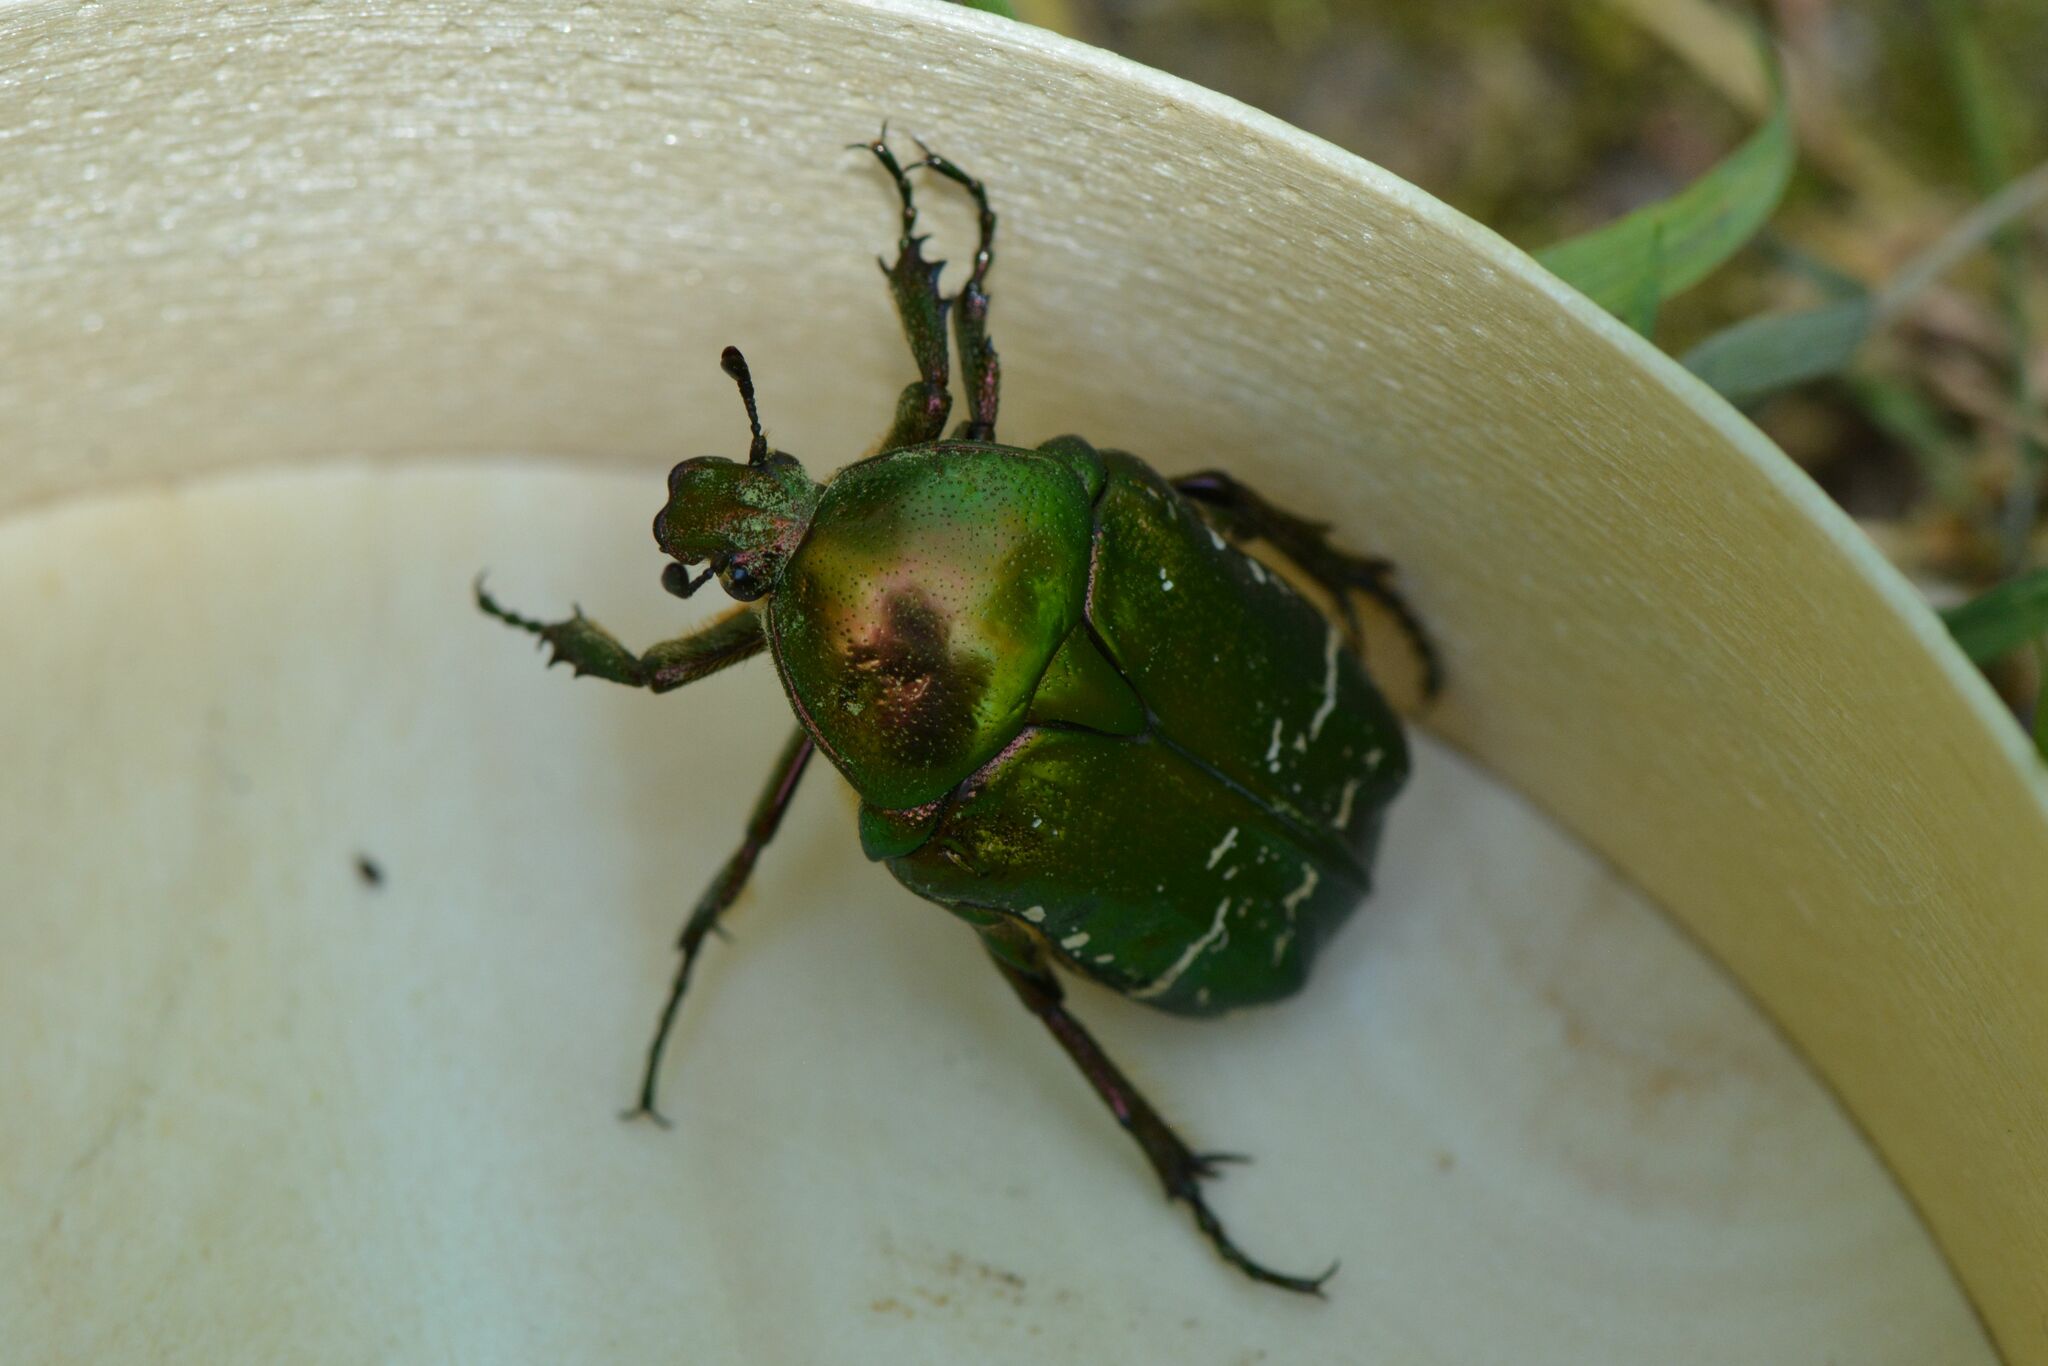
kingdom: Animalia
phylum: Arthropoda
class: Insecta
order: Coleoptera
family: Scarabaeidae
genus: Cetonia
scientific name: Cetonia aurata
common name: Rose chafer
